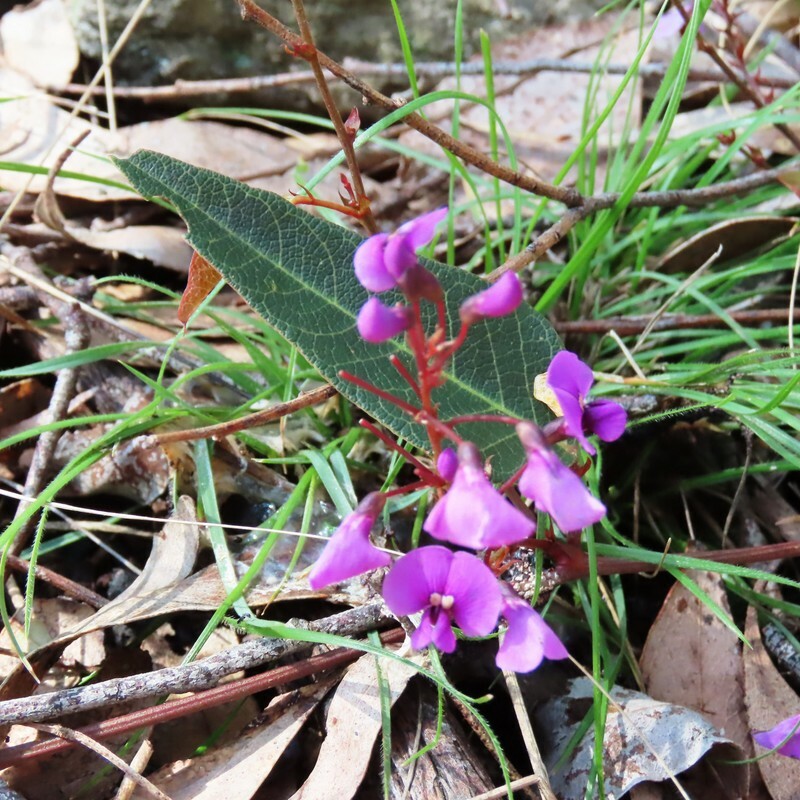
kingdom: Plantae
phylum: Tracheophyta
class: Magnoliopsida
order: Fabales
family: Fabaceae
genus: Hardenbergia
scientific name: Hardenbergia violacea
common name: Coral-pea
